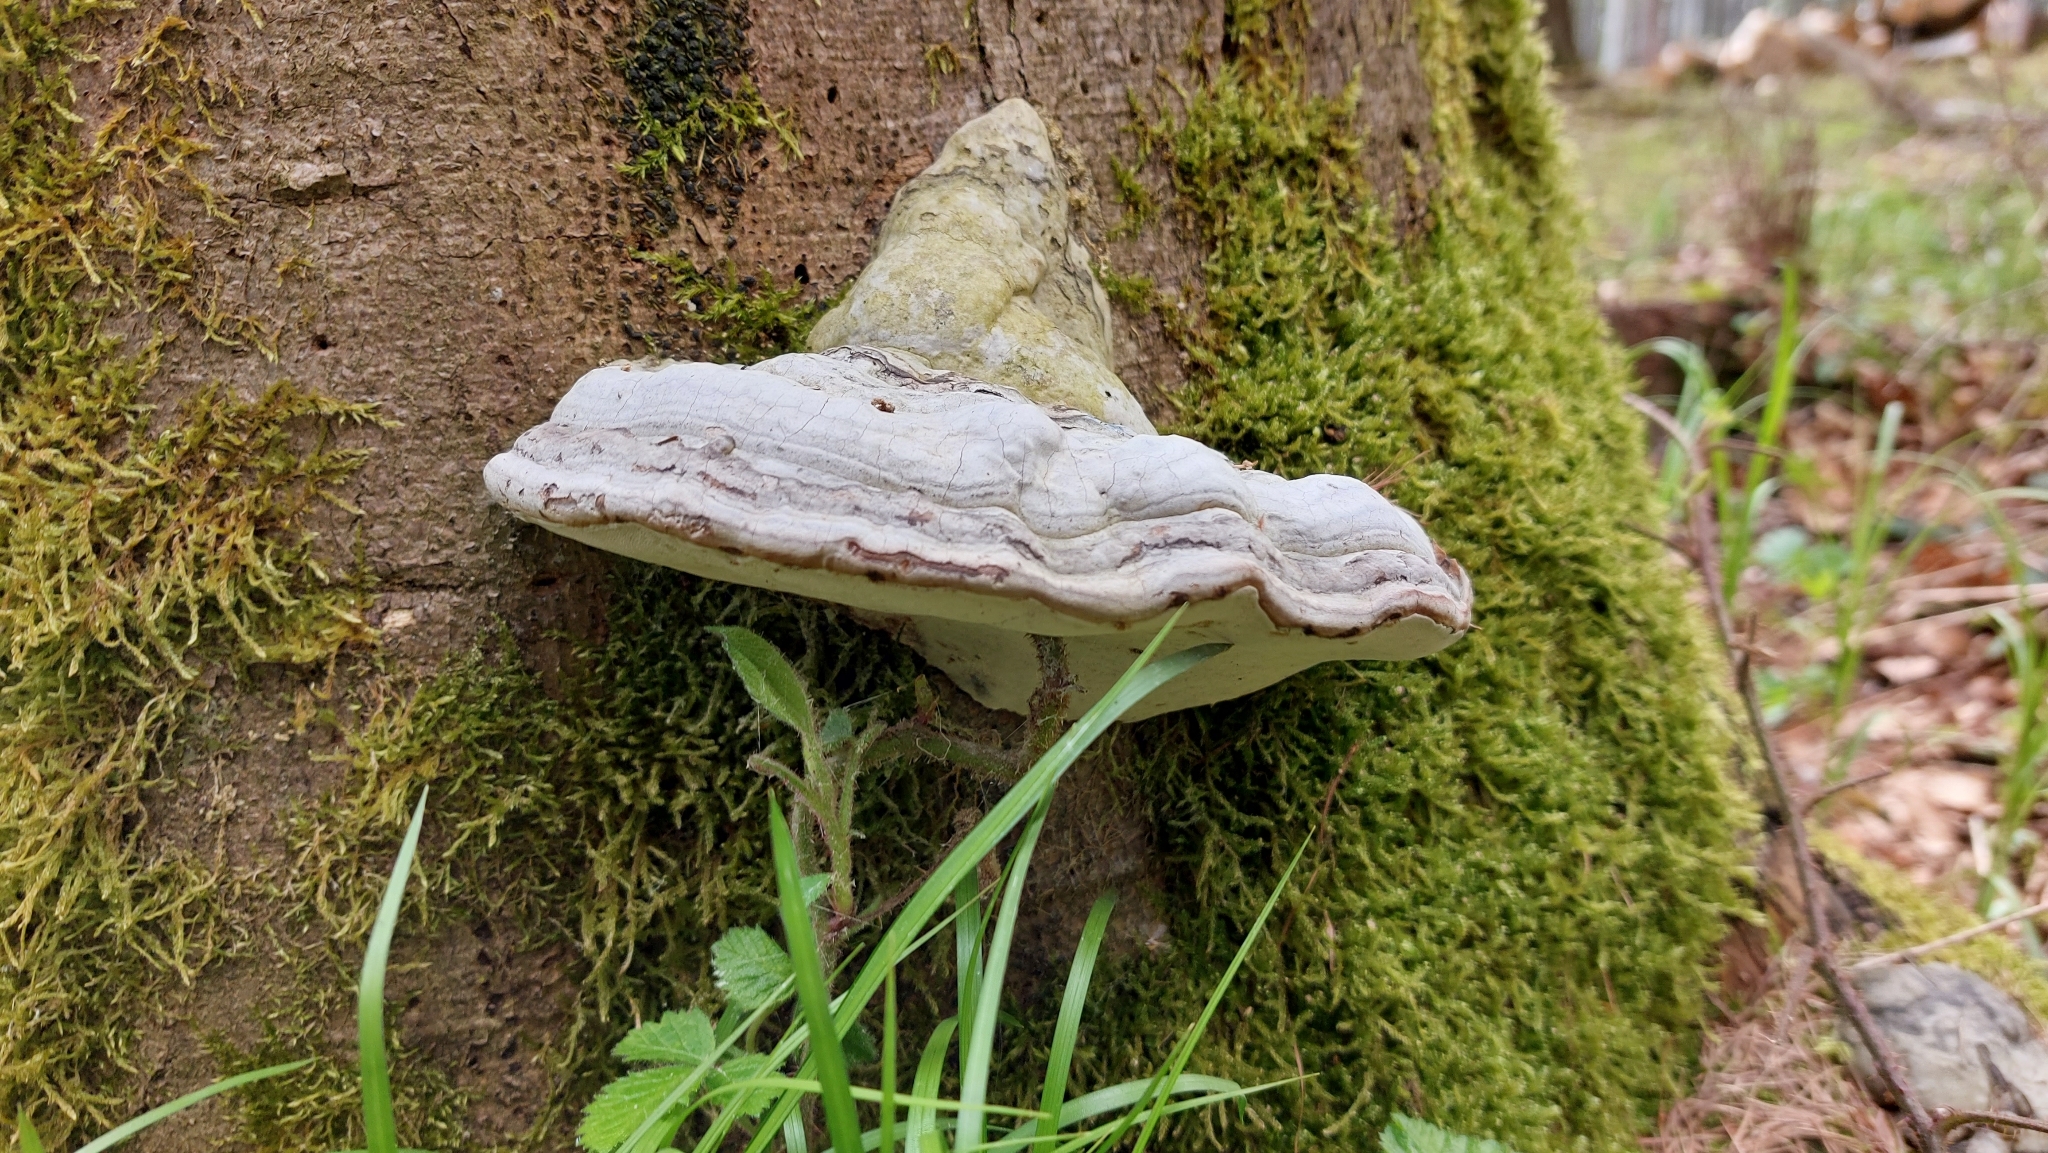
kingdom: Fungi
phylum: Basidiomycota
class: Agaricomycetes
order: Polyporales
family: Polyporaceae
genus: Fomes
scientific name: Fomes fomentarius
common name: Hoof fungus
